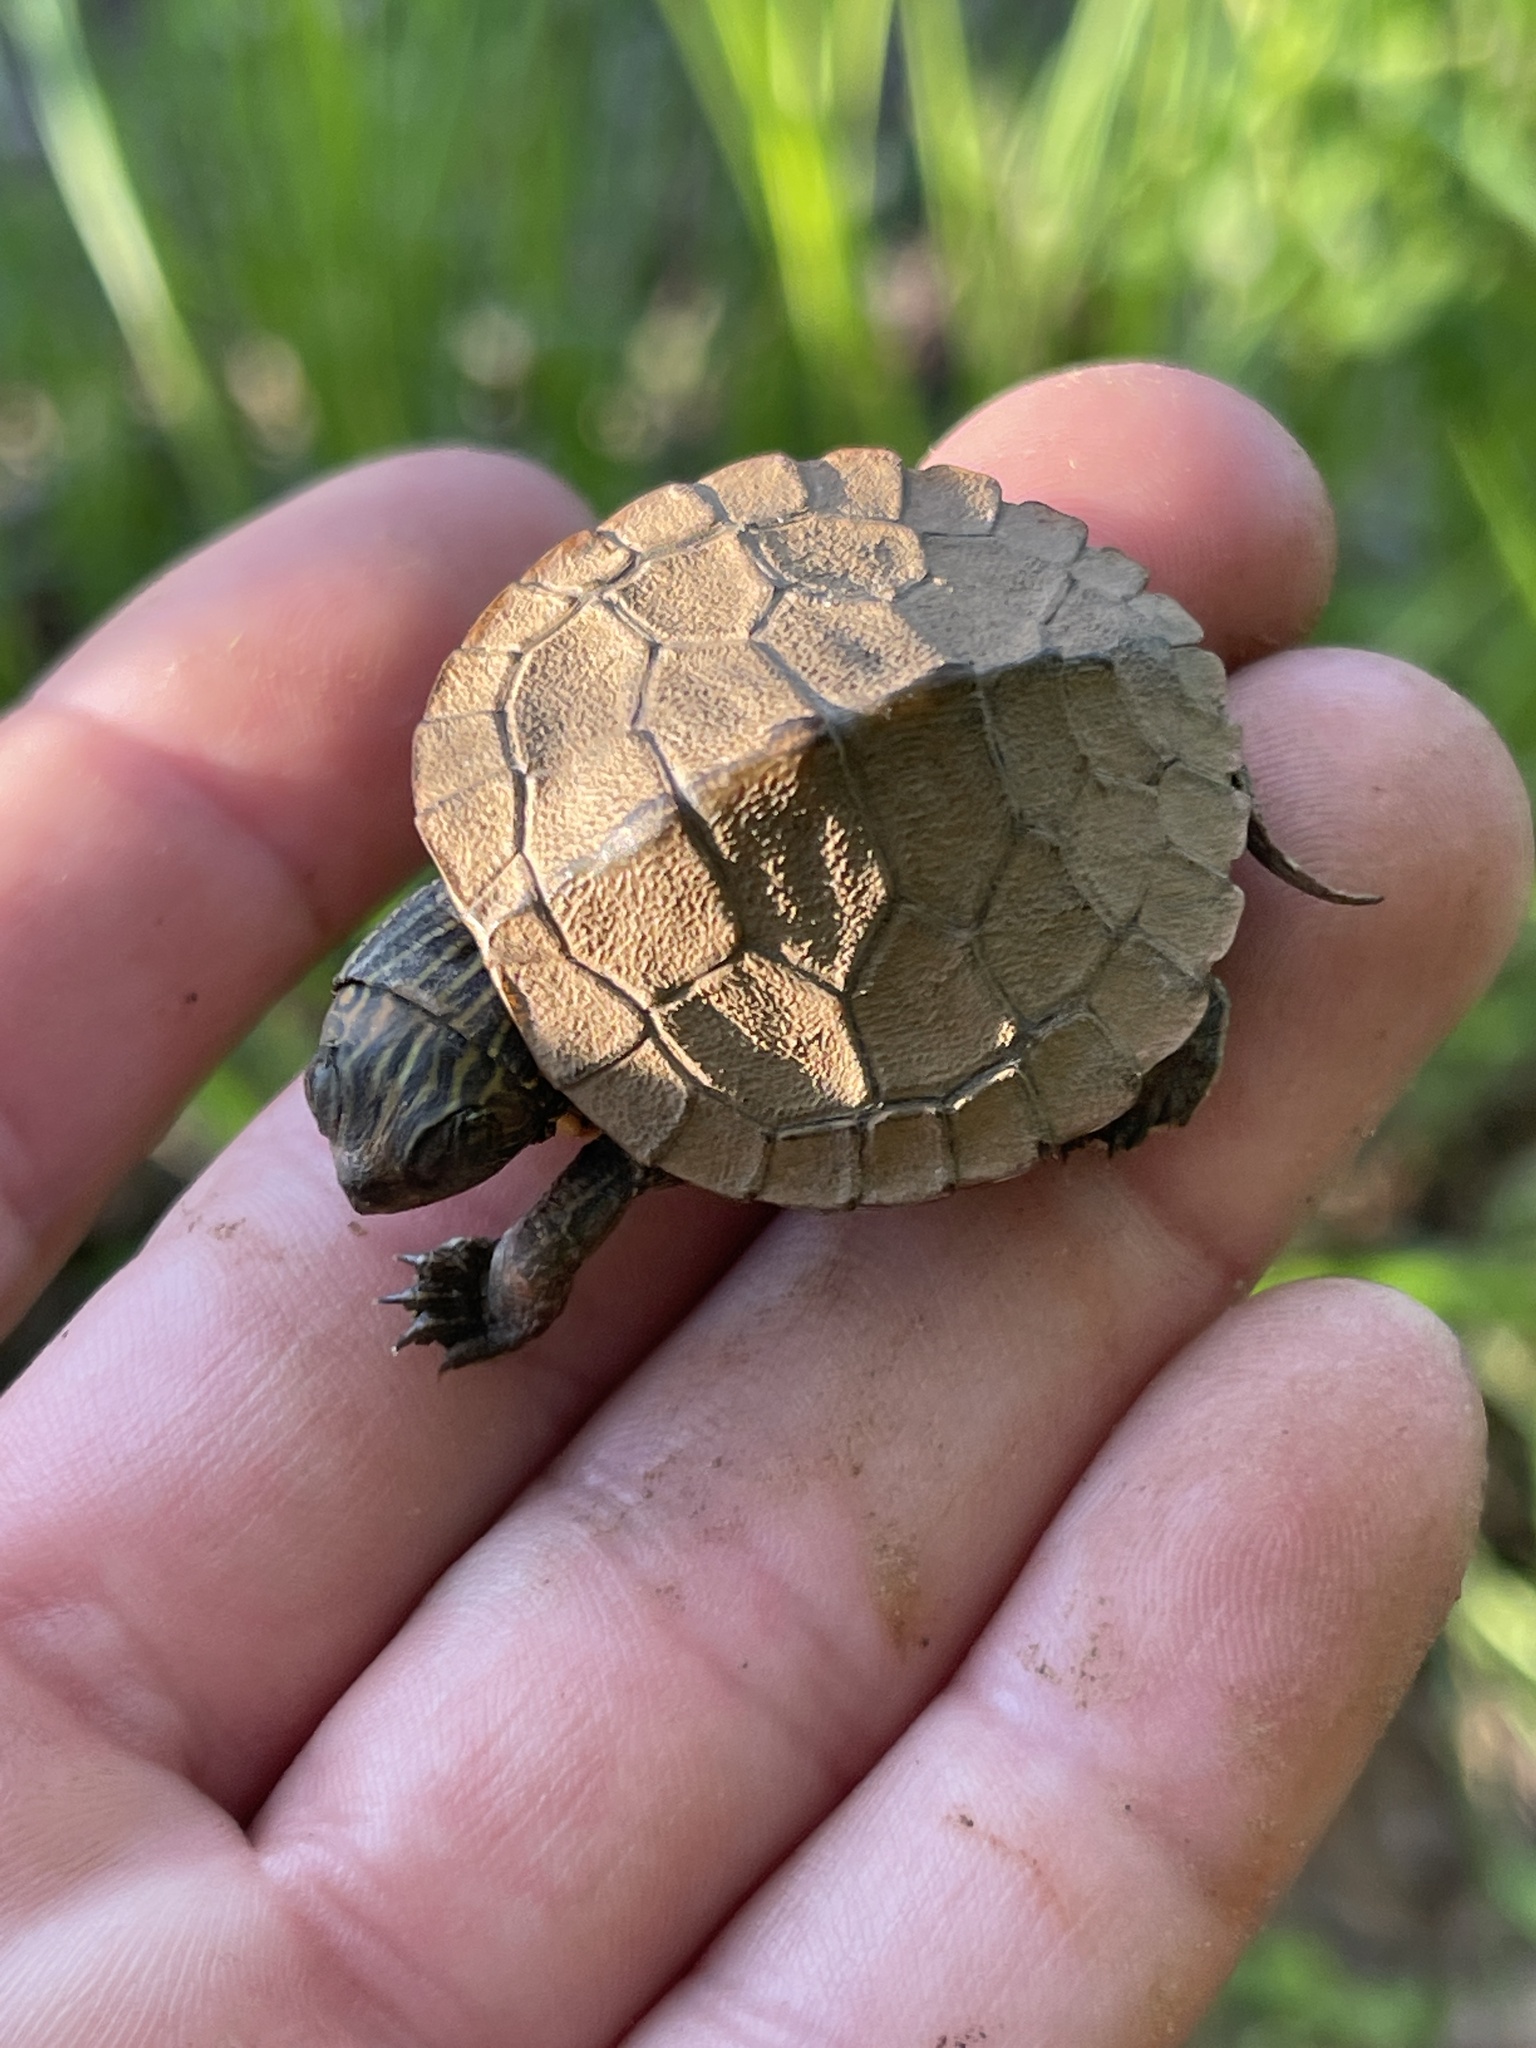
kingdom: Animalia
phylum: Chordata
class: Testudines
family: Emydidae
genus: Graptemys
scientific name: Graptemys geographica
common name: Common map turtle
